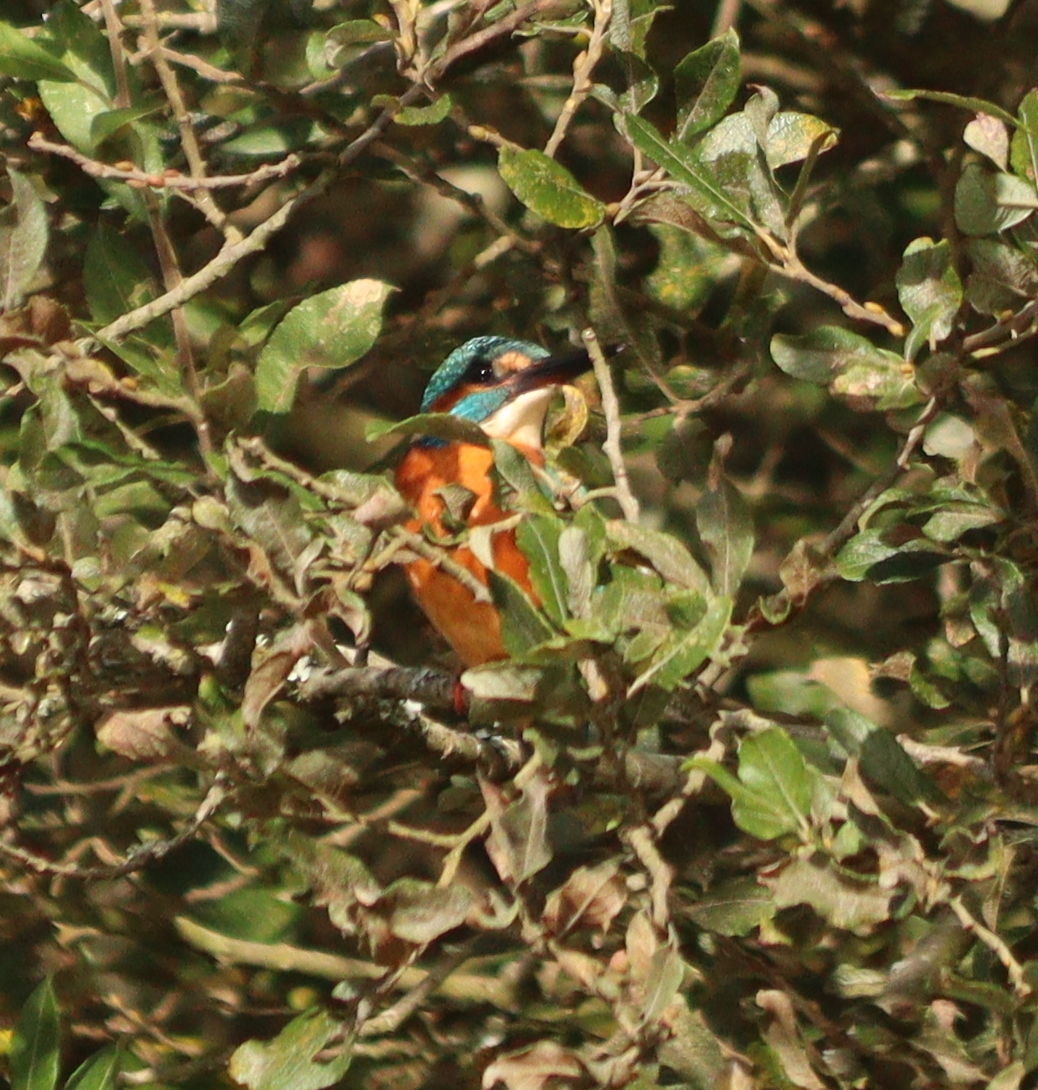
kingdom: Animalia
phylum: Chordata
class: Aves
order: Coraciiformes
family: Alcedinidae
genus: Alcedo
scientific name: Alcedo atthis
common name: Common kingfisher
